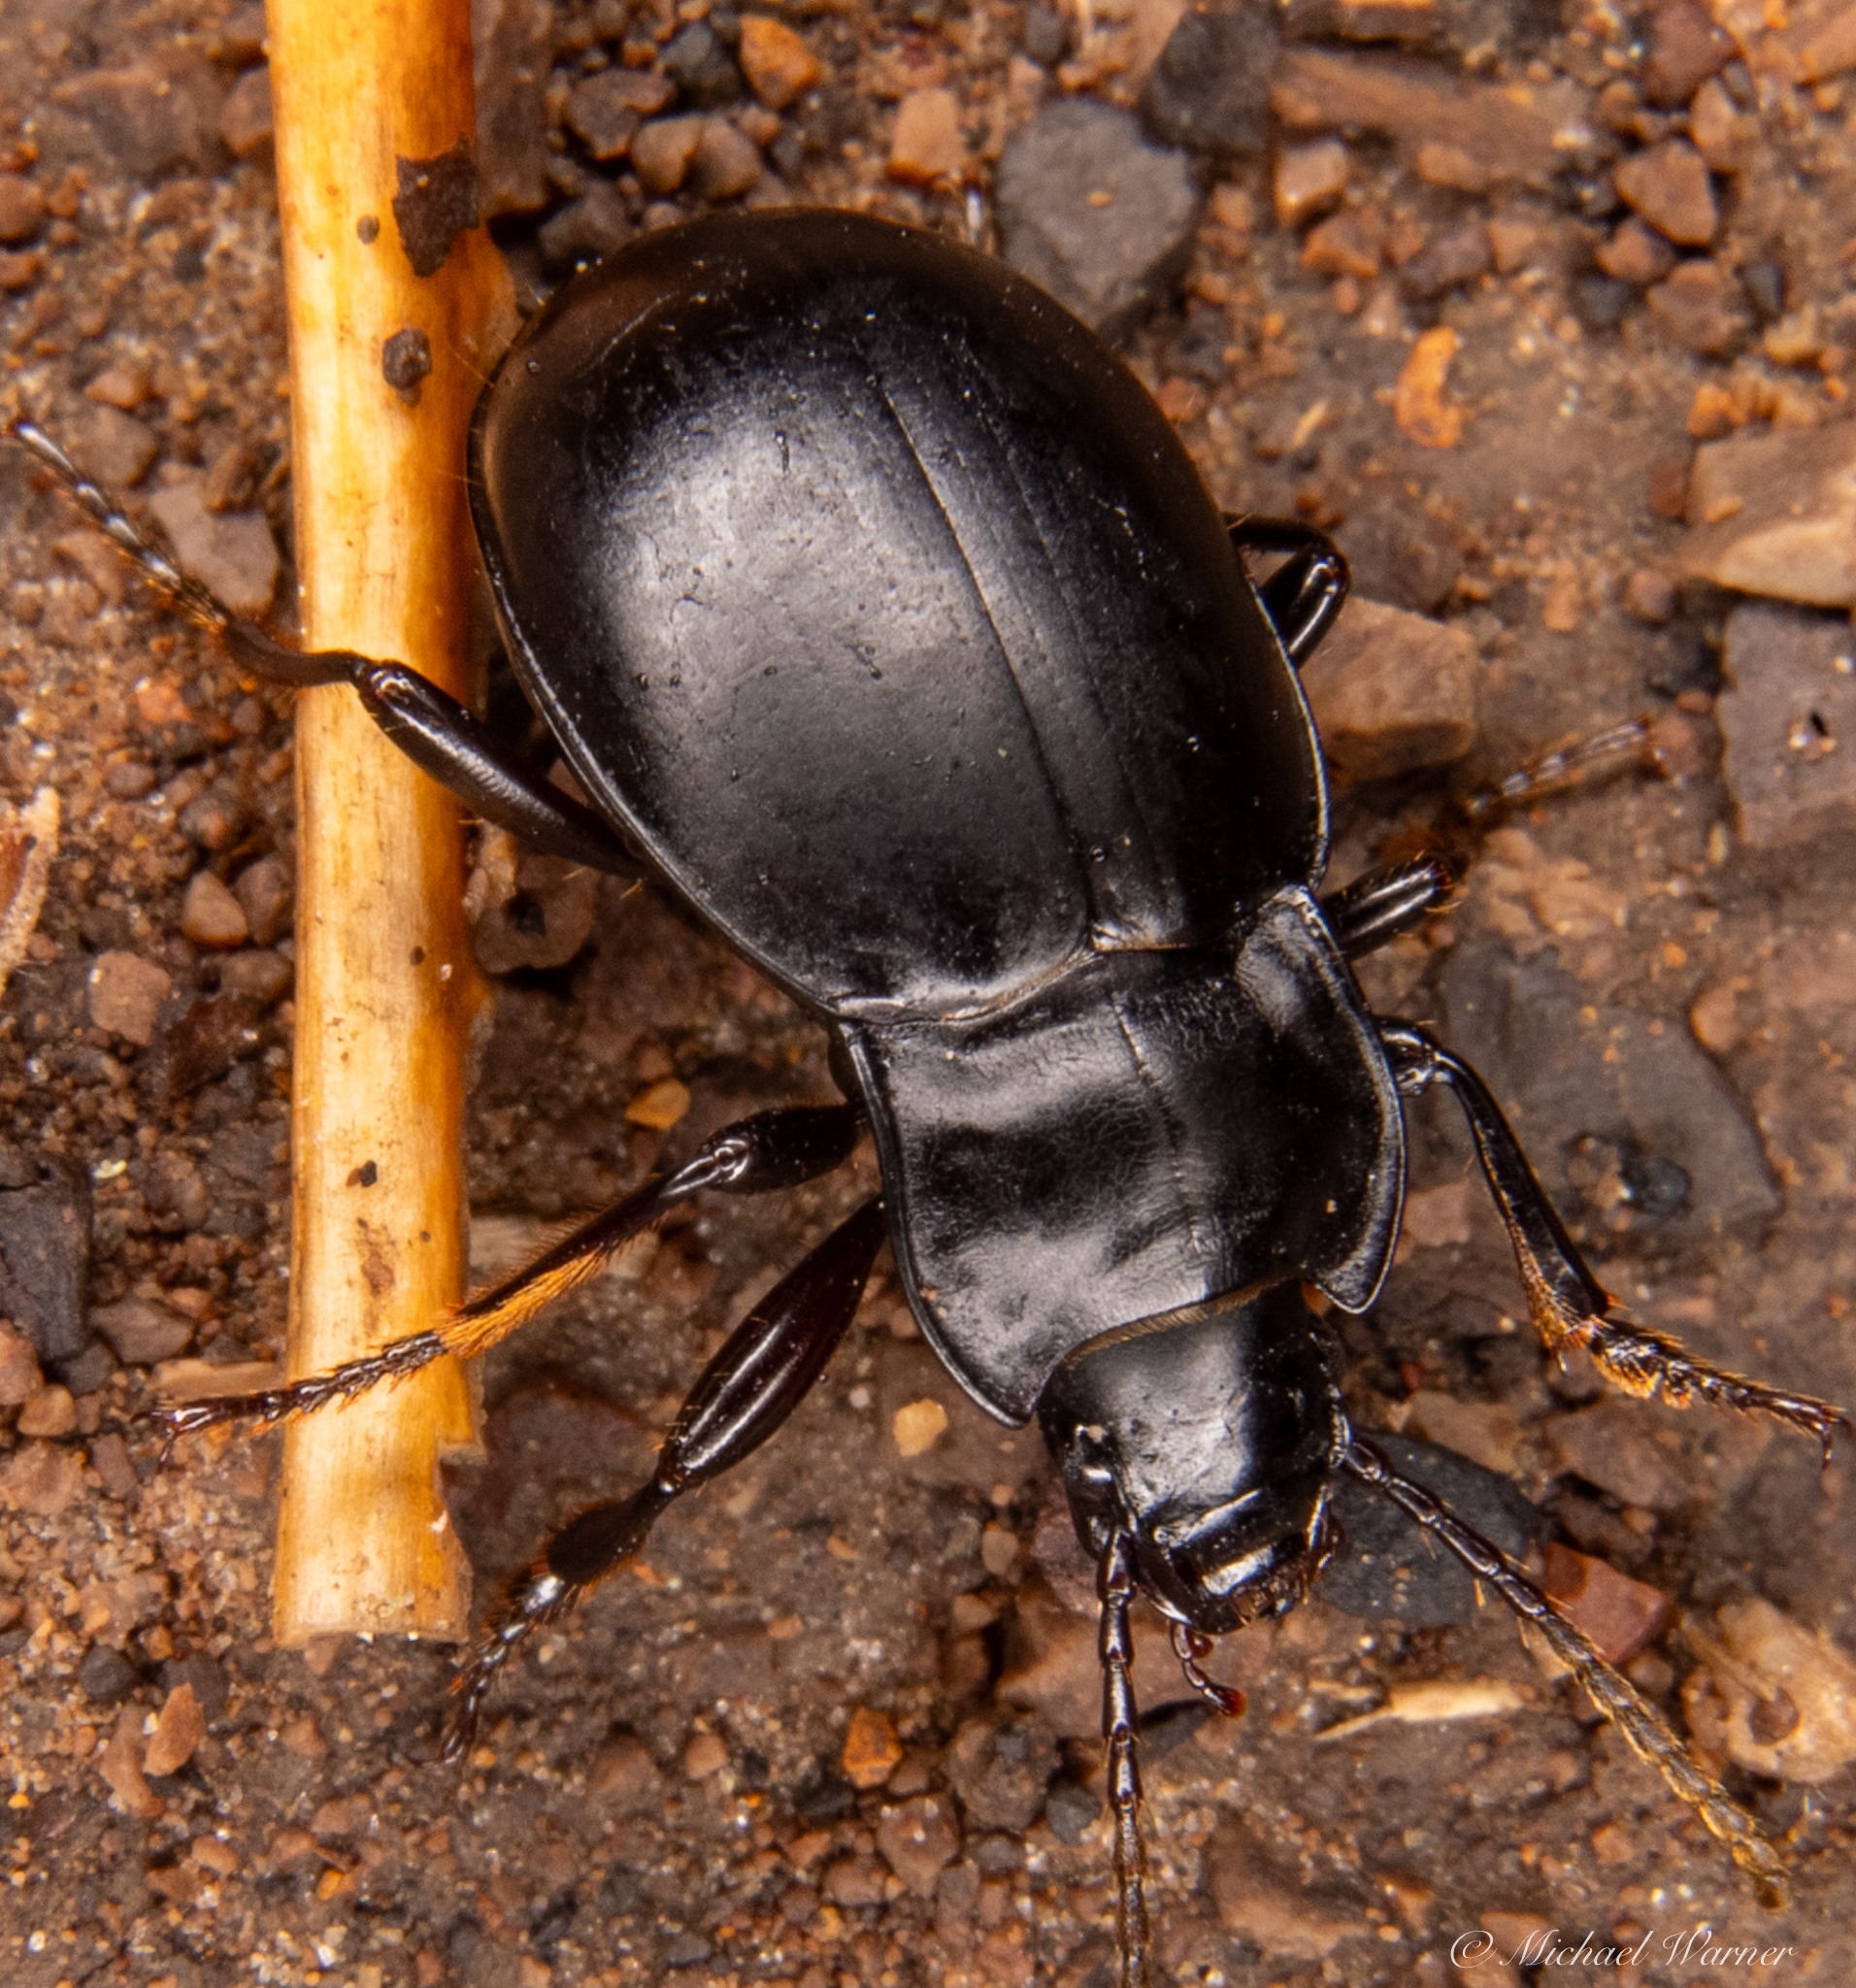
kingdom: Animalia
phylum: Arthropoda
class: Insecta
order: Coleoptera
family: Carabidae
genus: Metrius
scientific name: Metrius contractus
